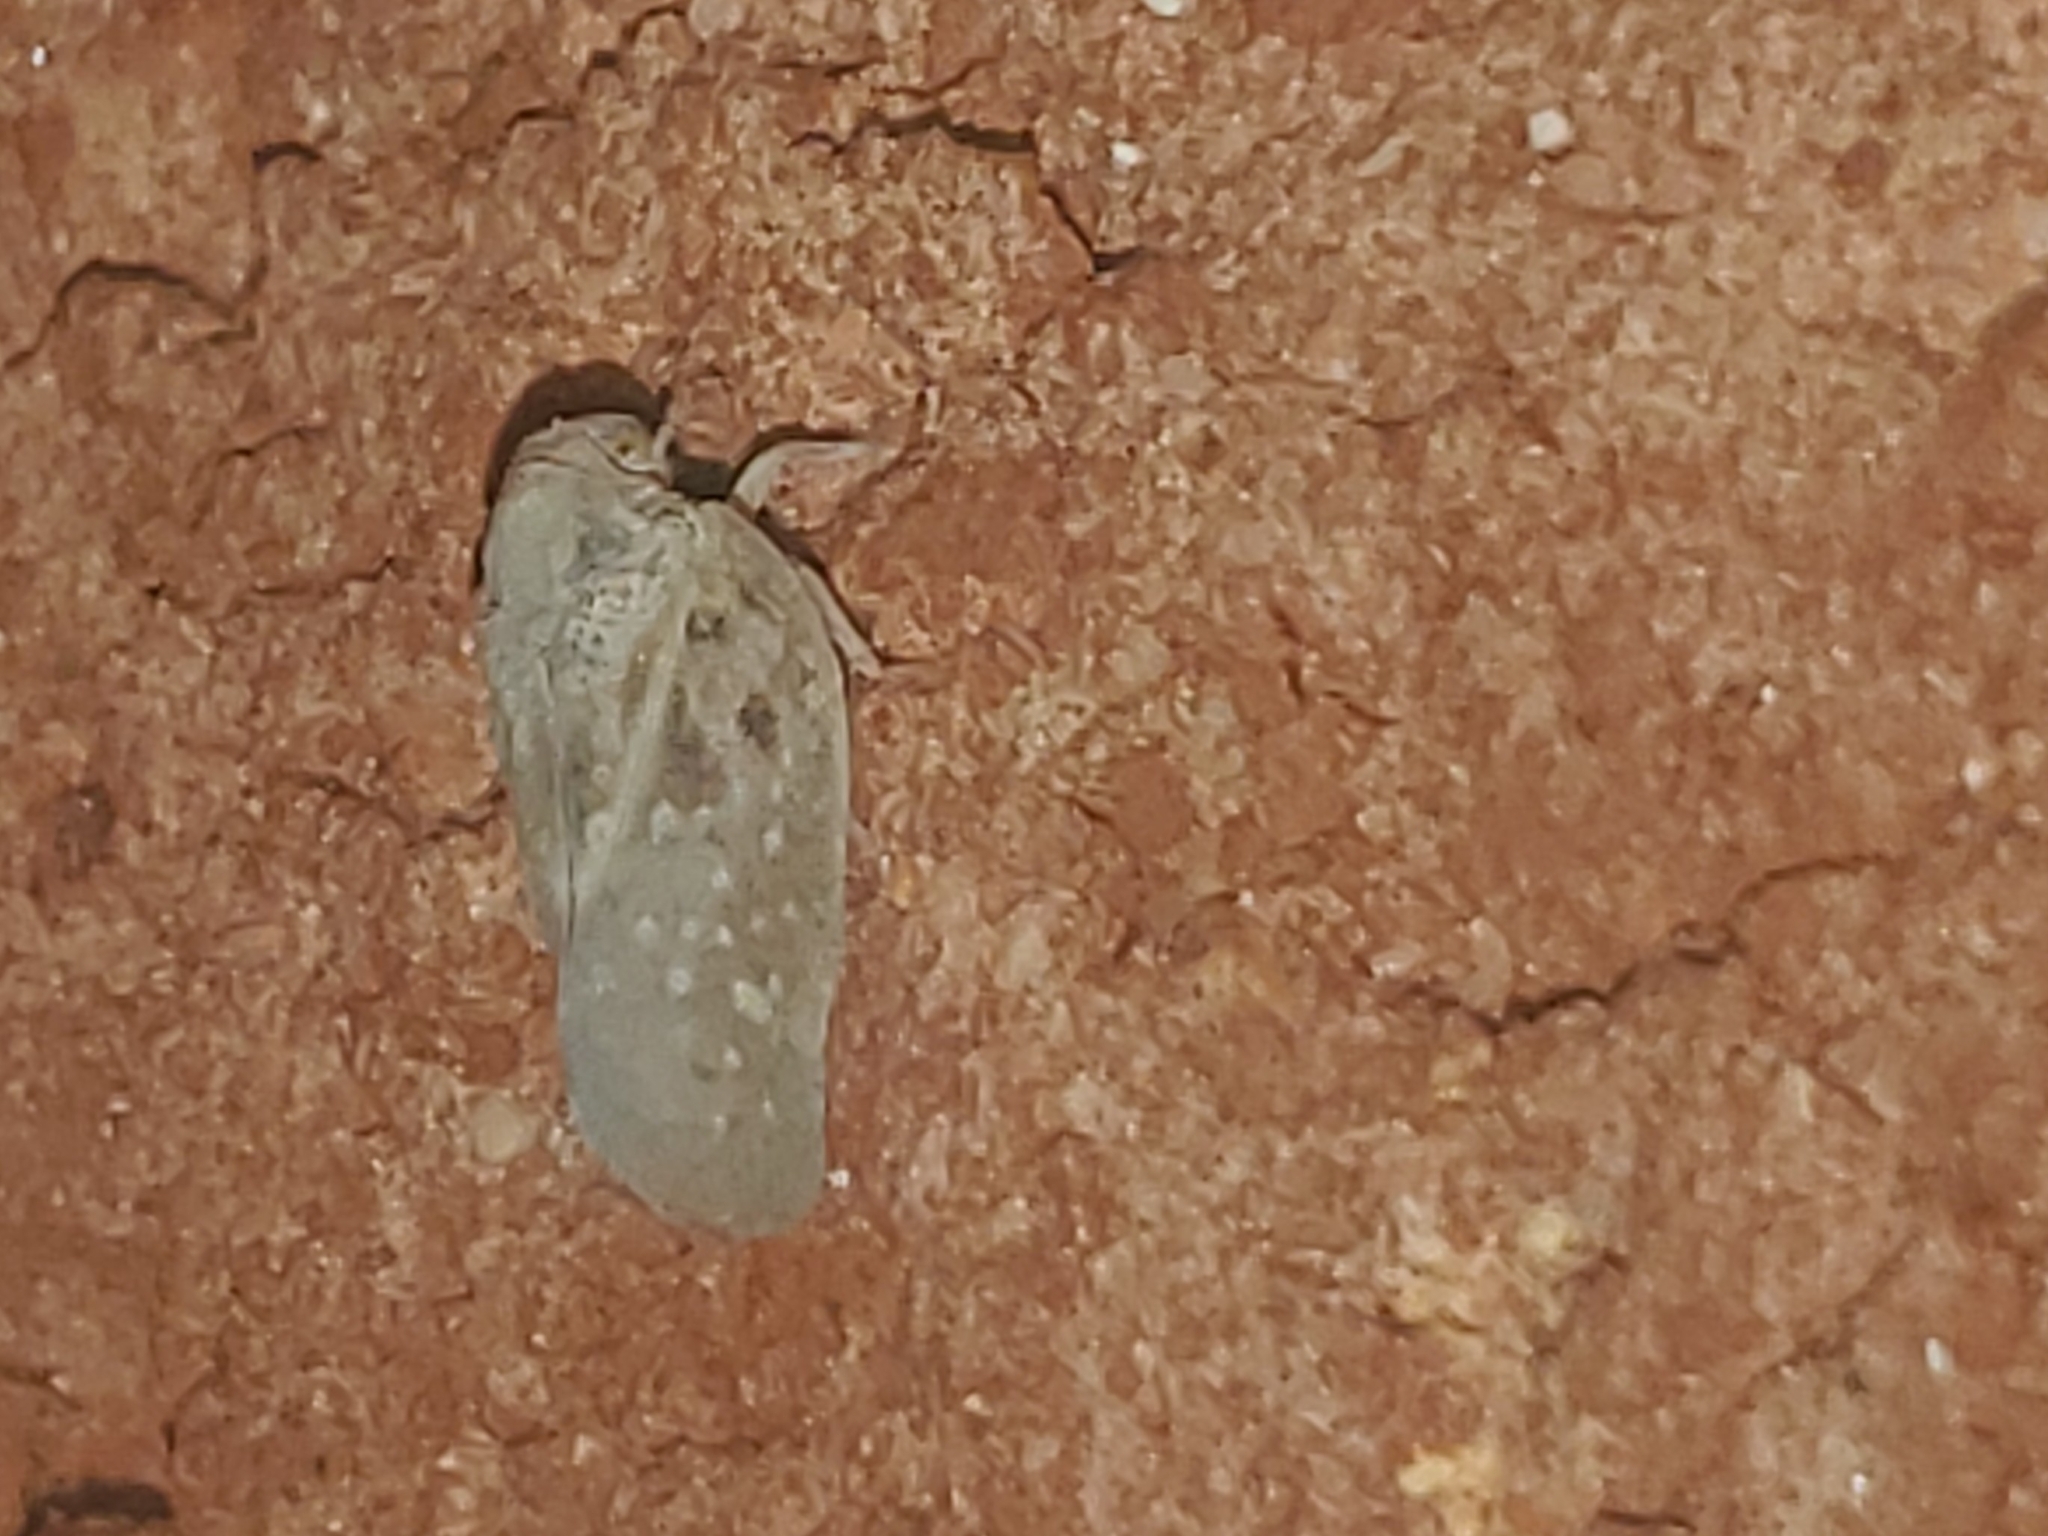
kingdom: Animalia
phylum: Arthropoda
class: Insecta
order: Hemiptera
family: Flatidae
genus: Metcalfa
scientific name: Metcalfa pruinosa
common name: Citrus flatid planthopper
